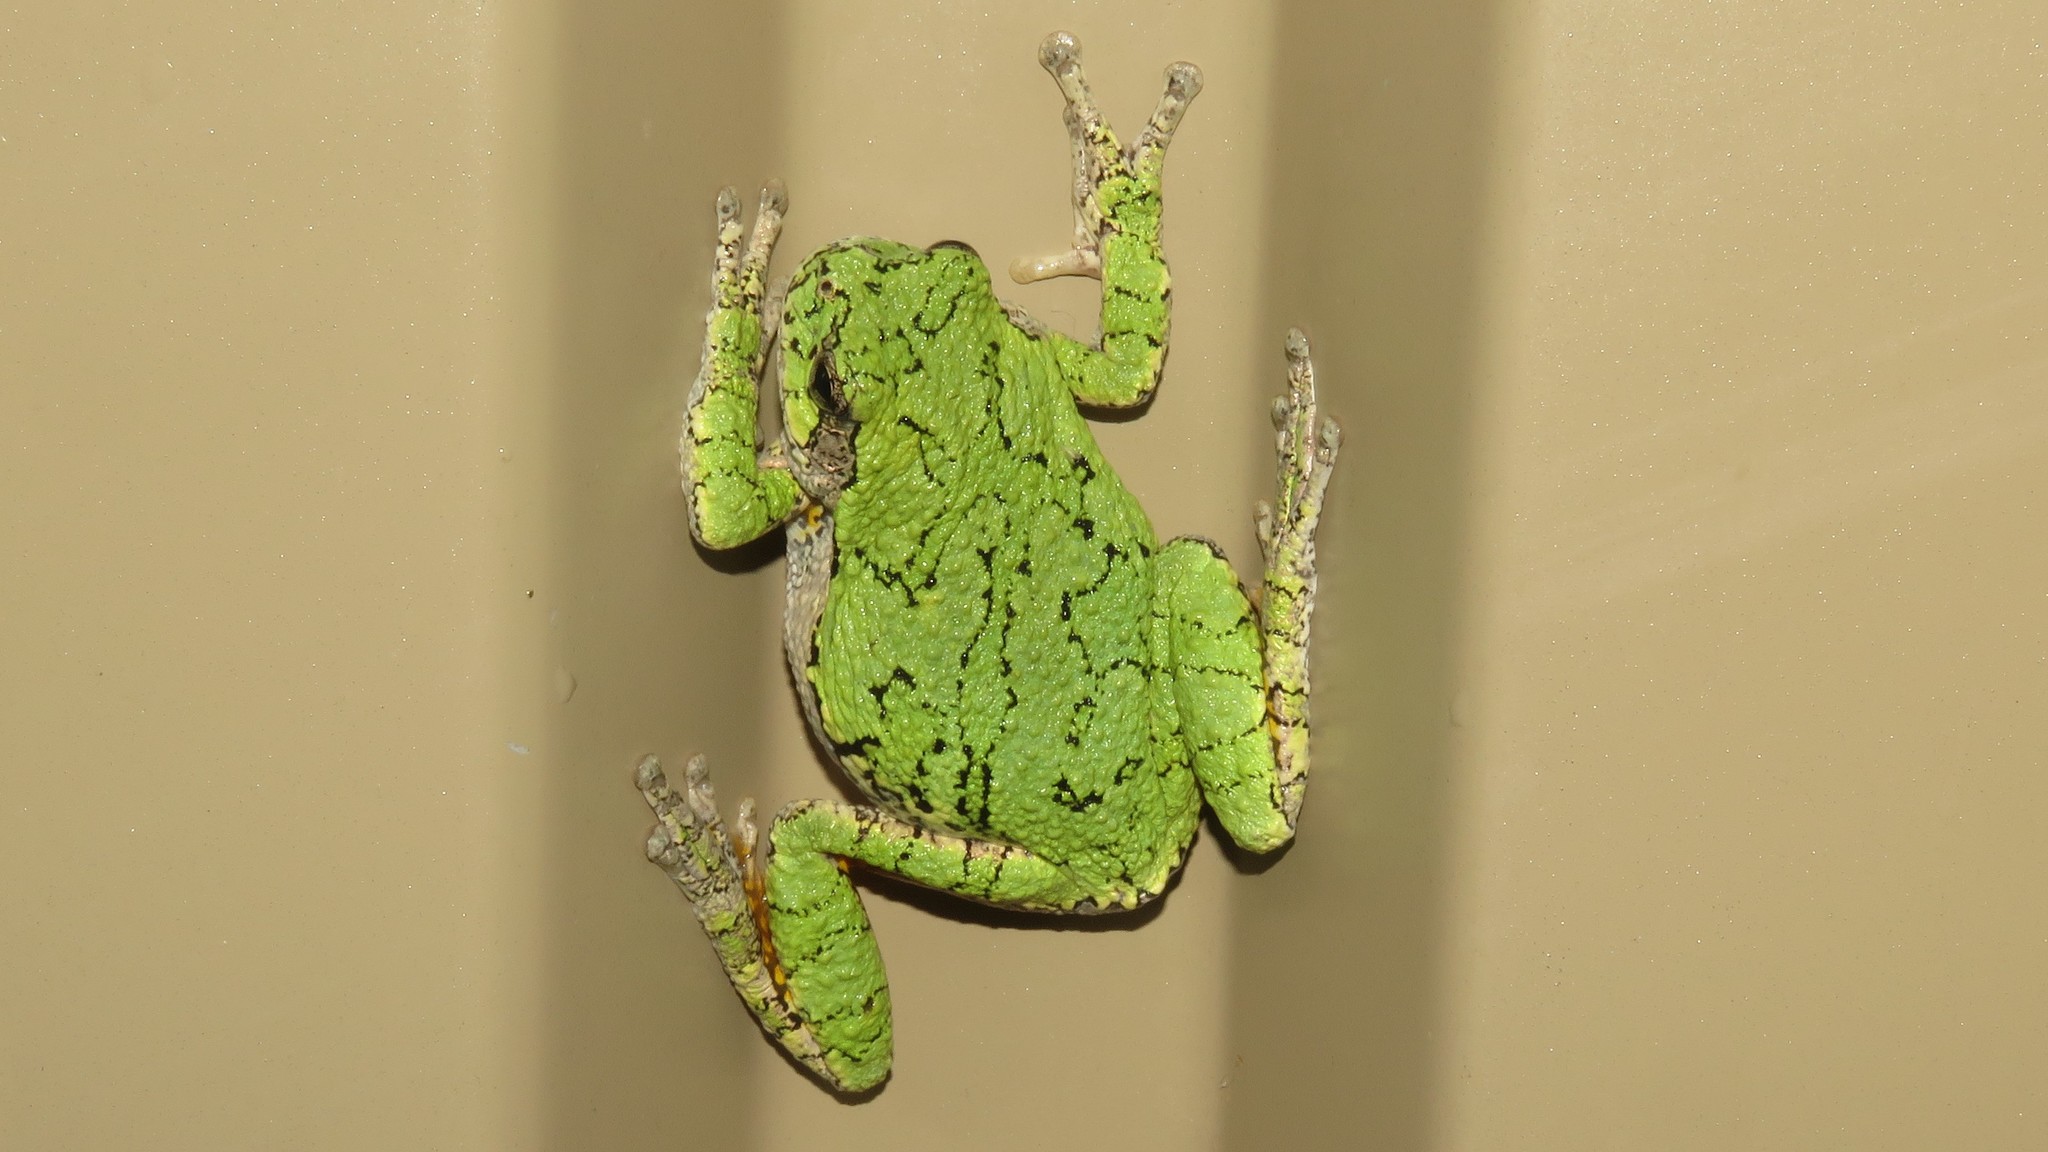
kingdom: Animalia
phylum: Chordata
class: Amphibia
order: Anura
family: Hylidae
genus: Dryophytes
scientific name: Dryophytes versicolor
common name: Gray treefrog
